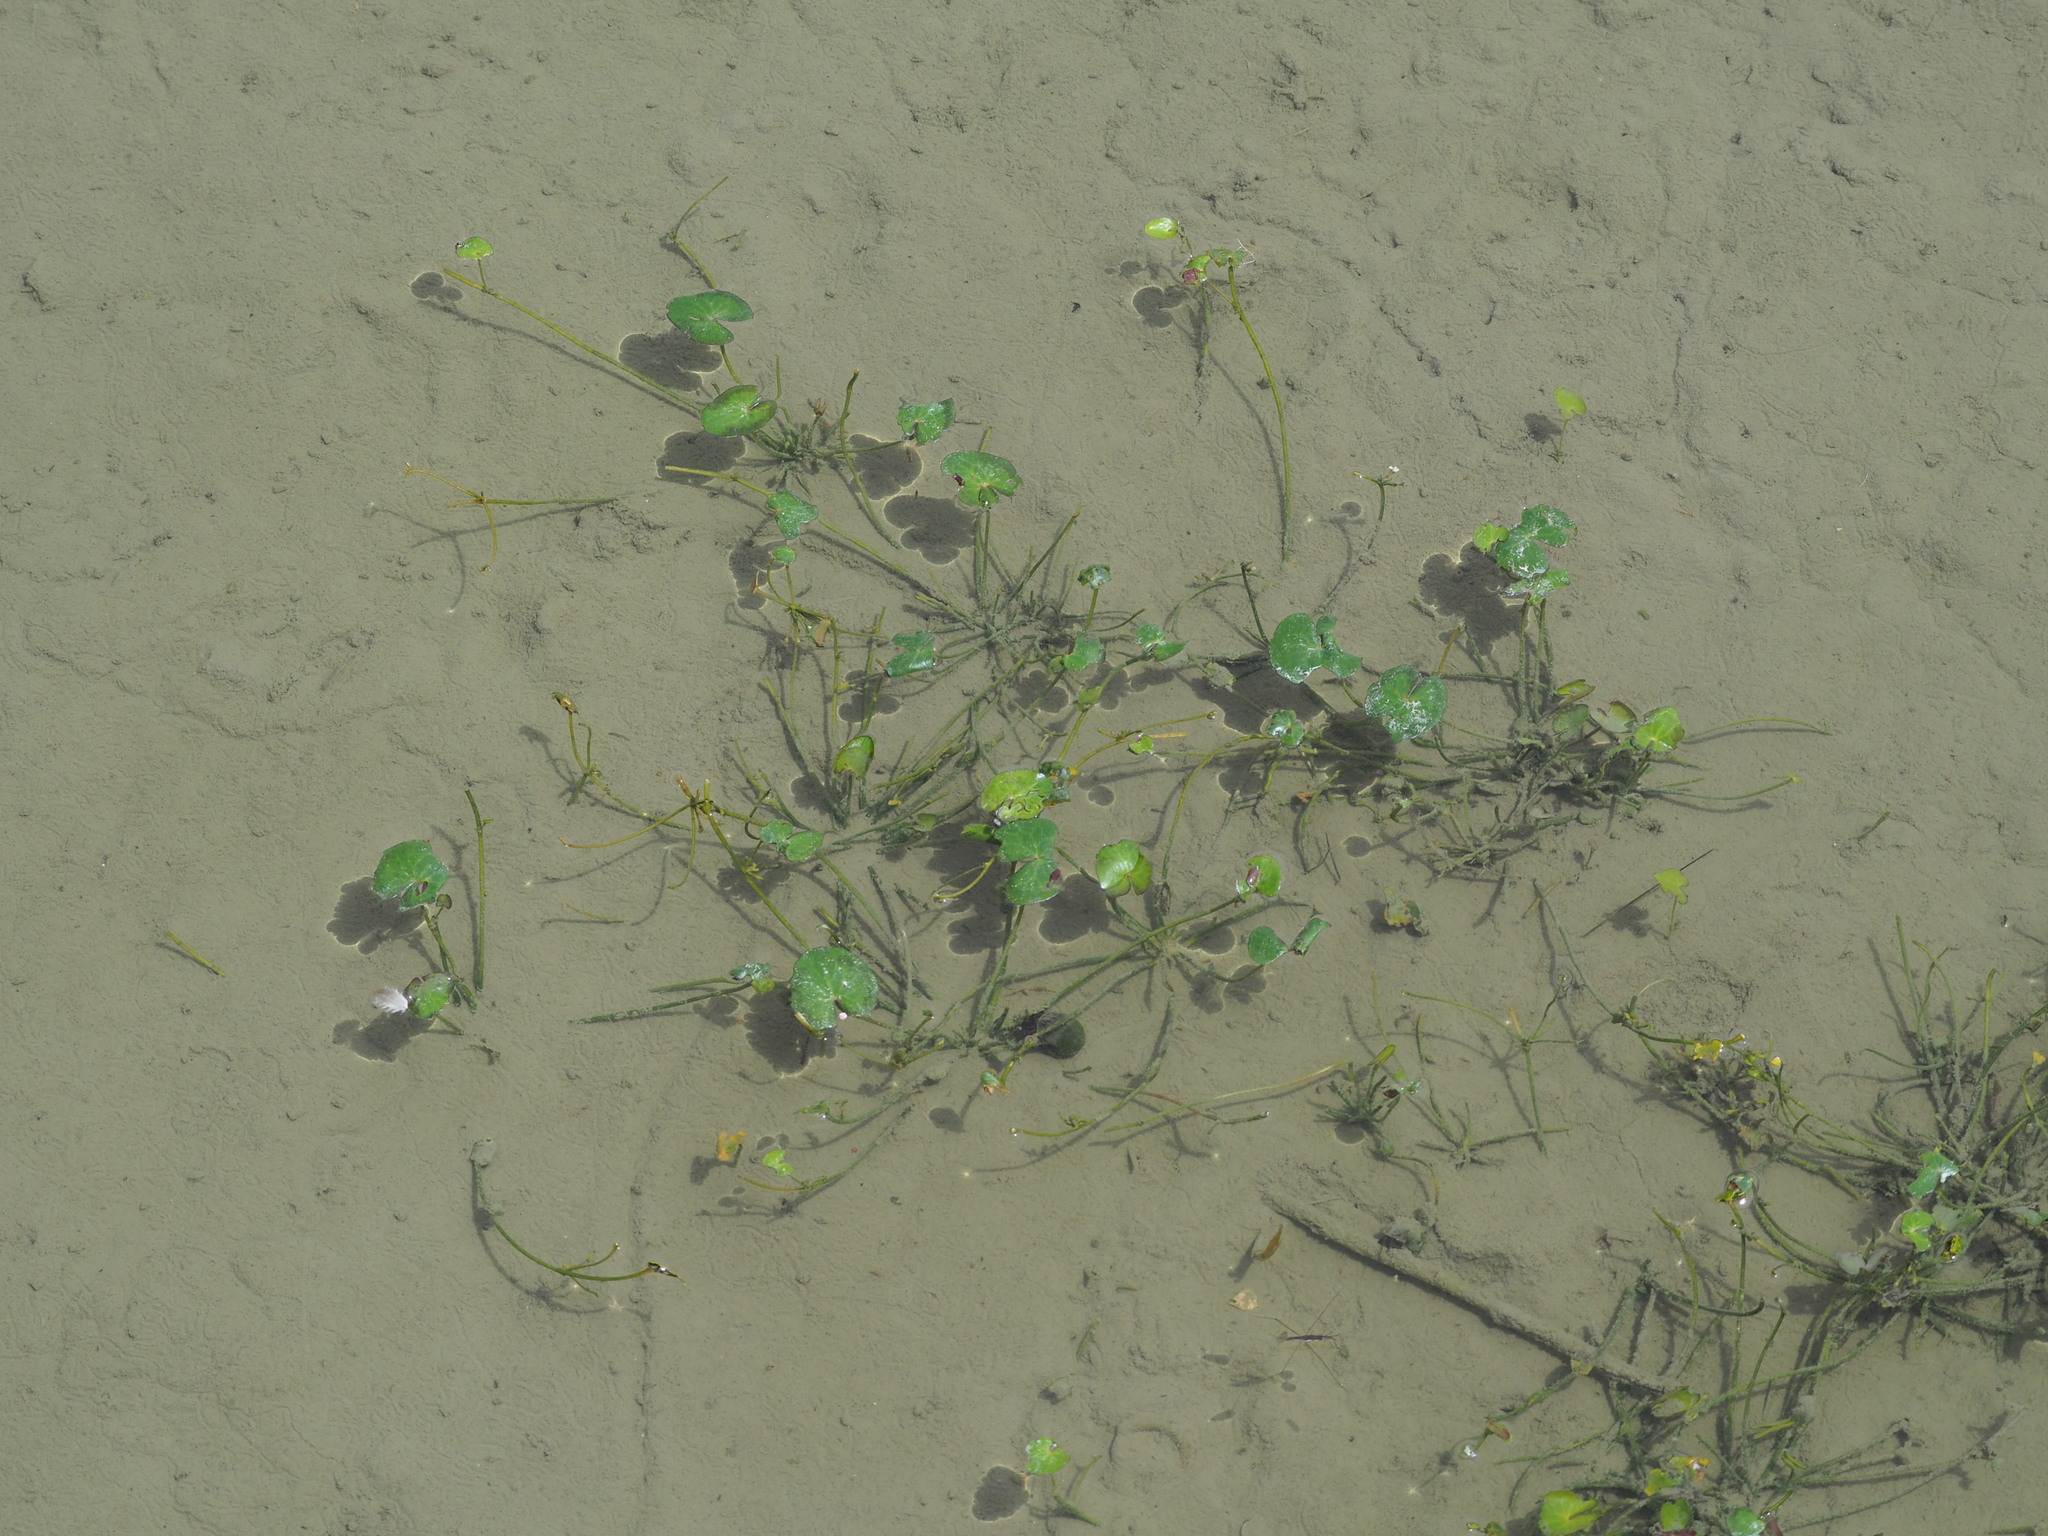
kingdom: Plantae
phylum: Tracheophyta
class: Magnoliopsida
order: Asterales
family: Menyanthaceae
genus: Nymphoides
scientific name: Nymphoides coreana
